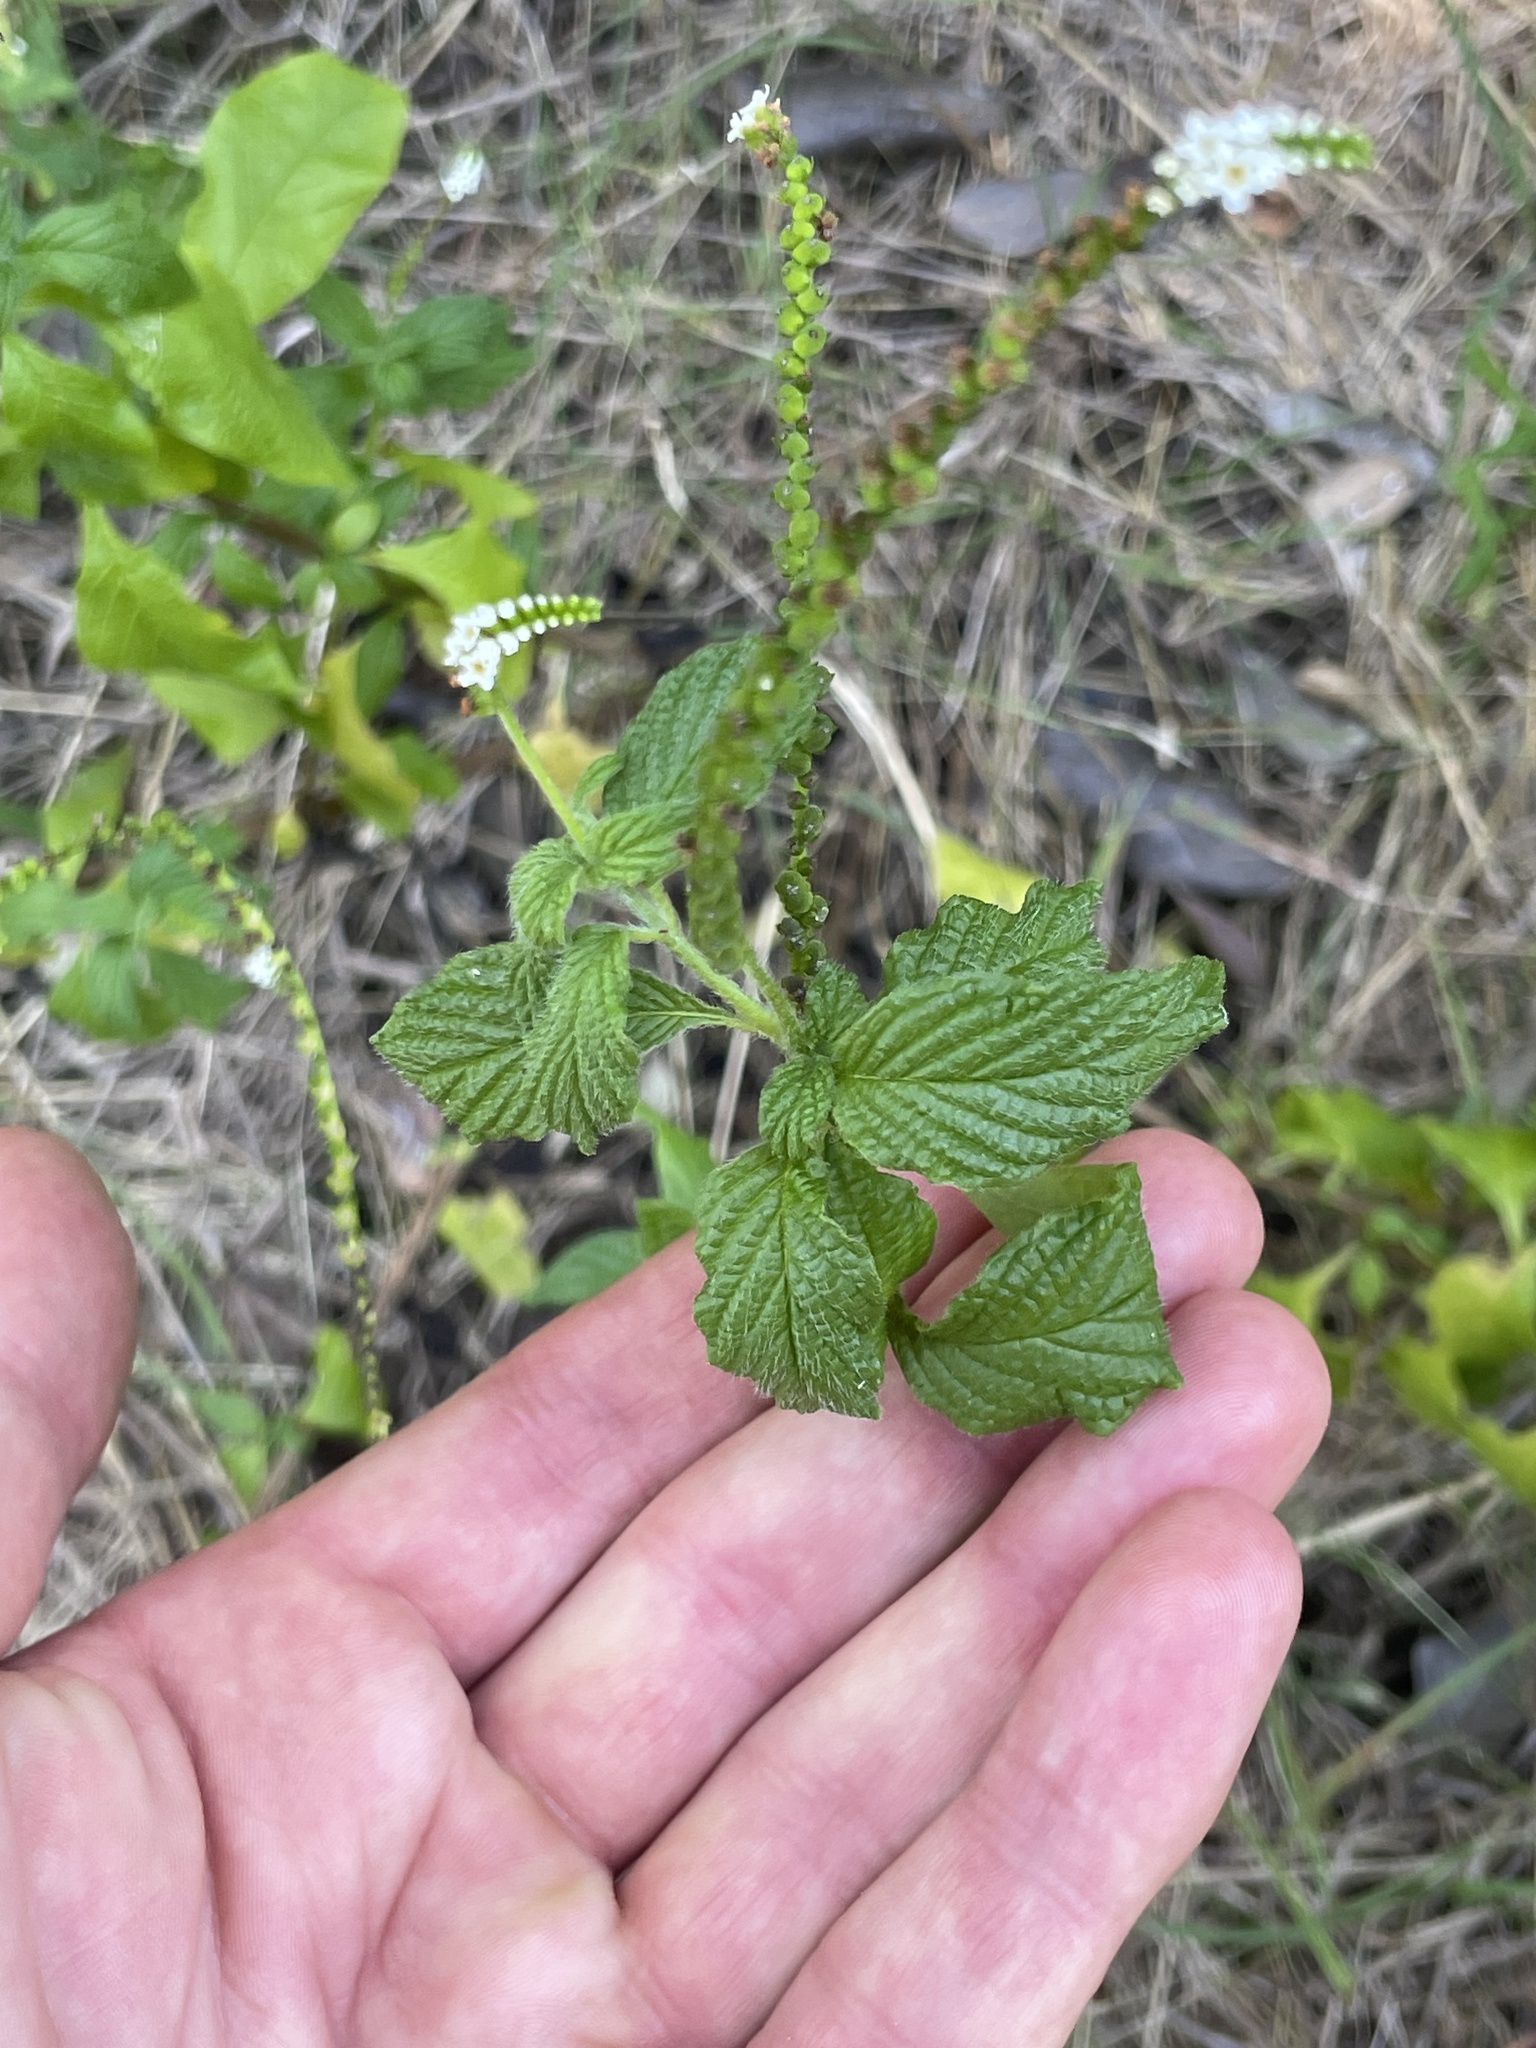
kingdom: Plantae
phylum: Tracheophyta
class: Magnoliopsida
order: Boraginales
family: Heliotropiaceae
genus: Heliotropium
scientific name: Heliotropium angiospermum
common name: Eye bright
